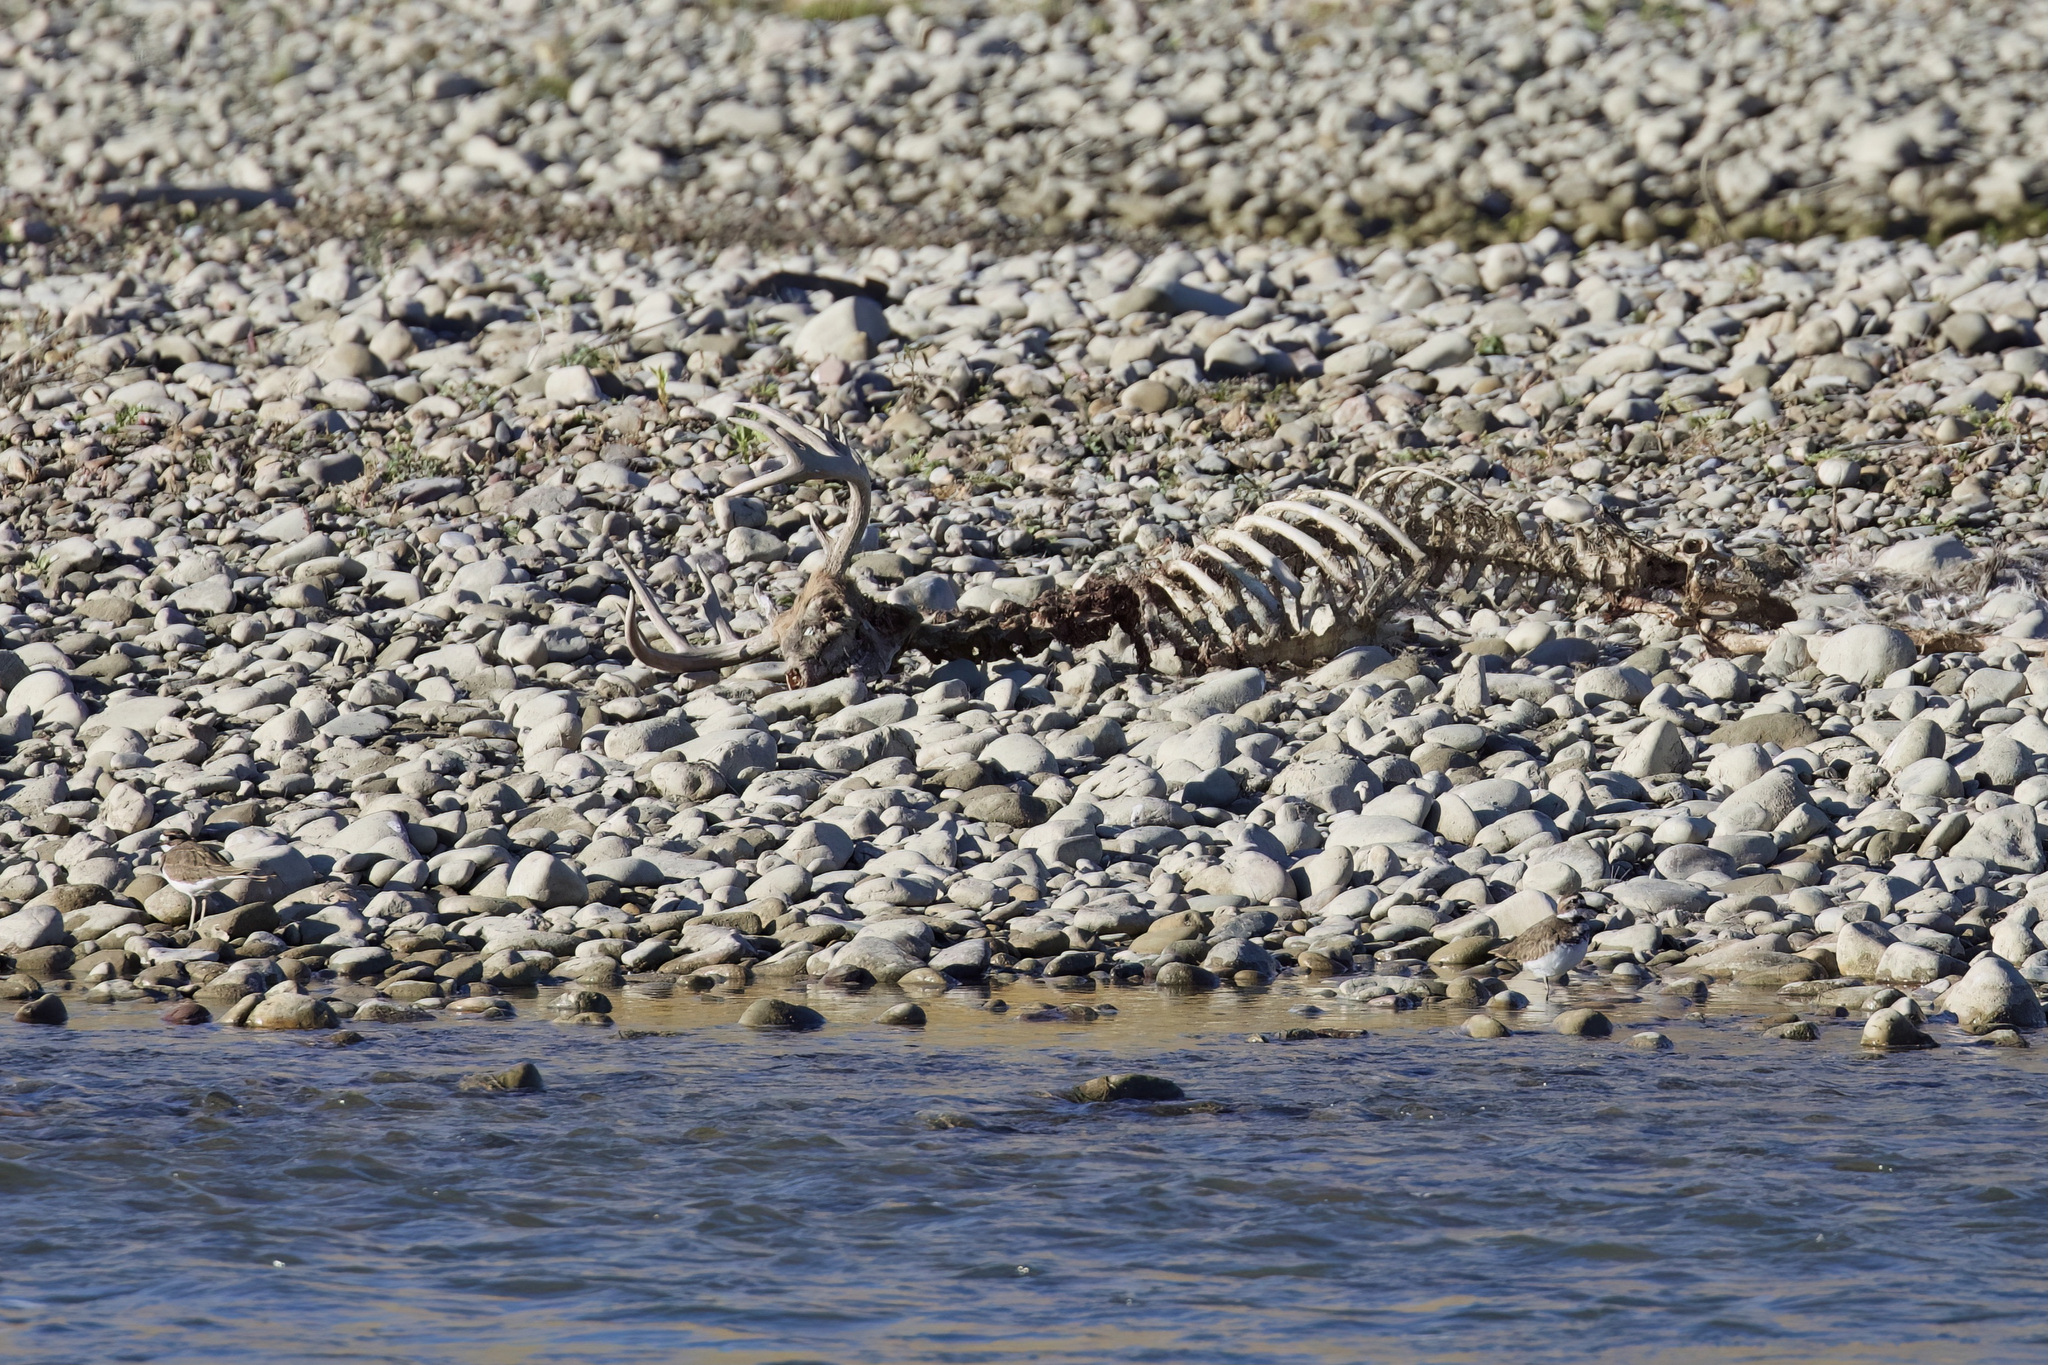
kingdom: Animalia
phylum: Chordata
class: Mammalia
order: Artiodactyla
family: Cervidae
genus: Odocoileus
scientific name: Odocoileus virginianus
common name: White-tailed deer
